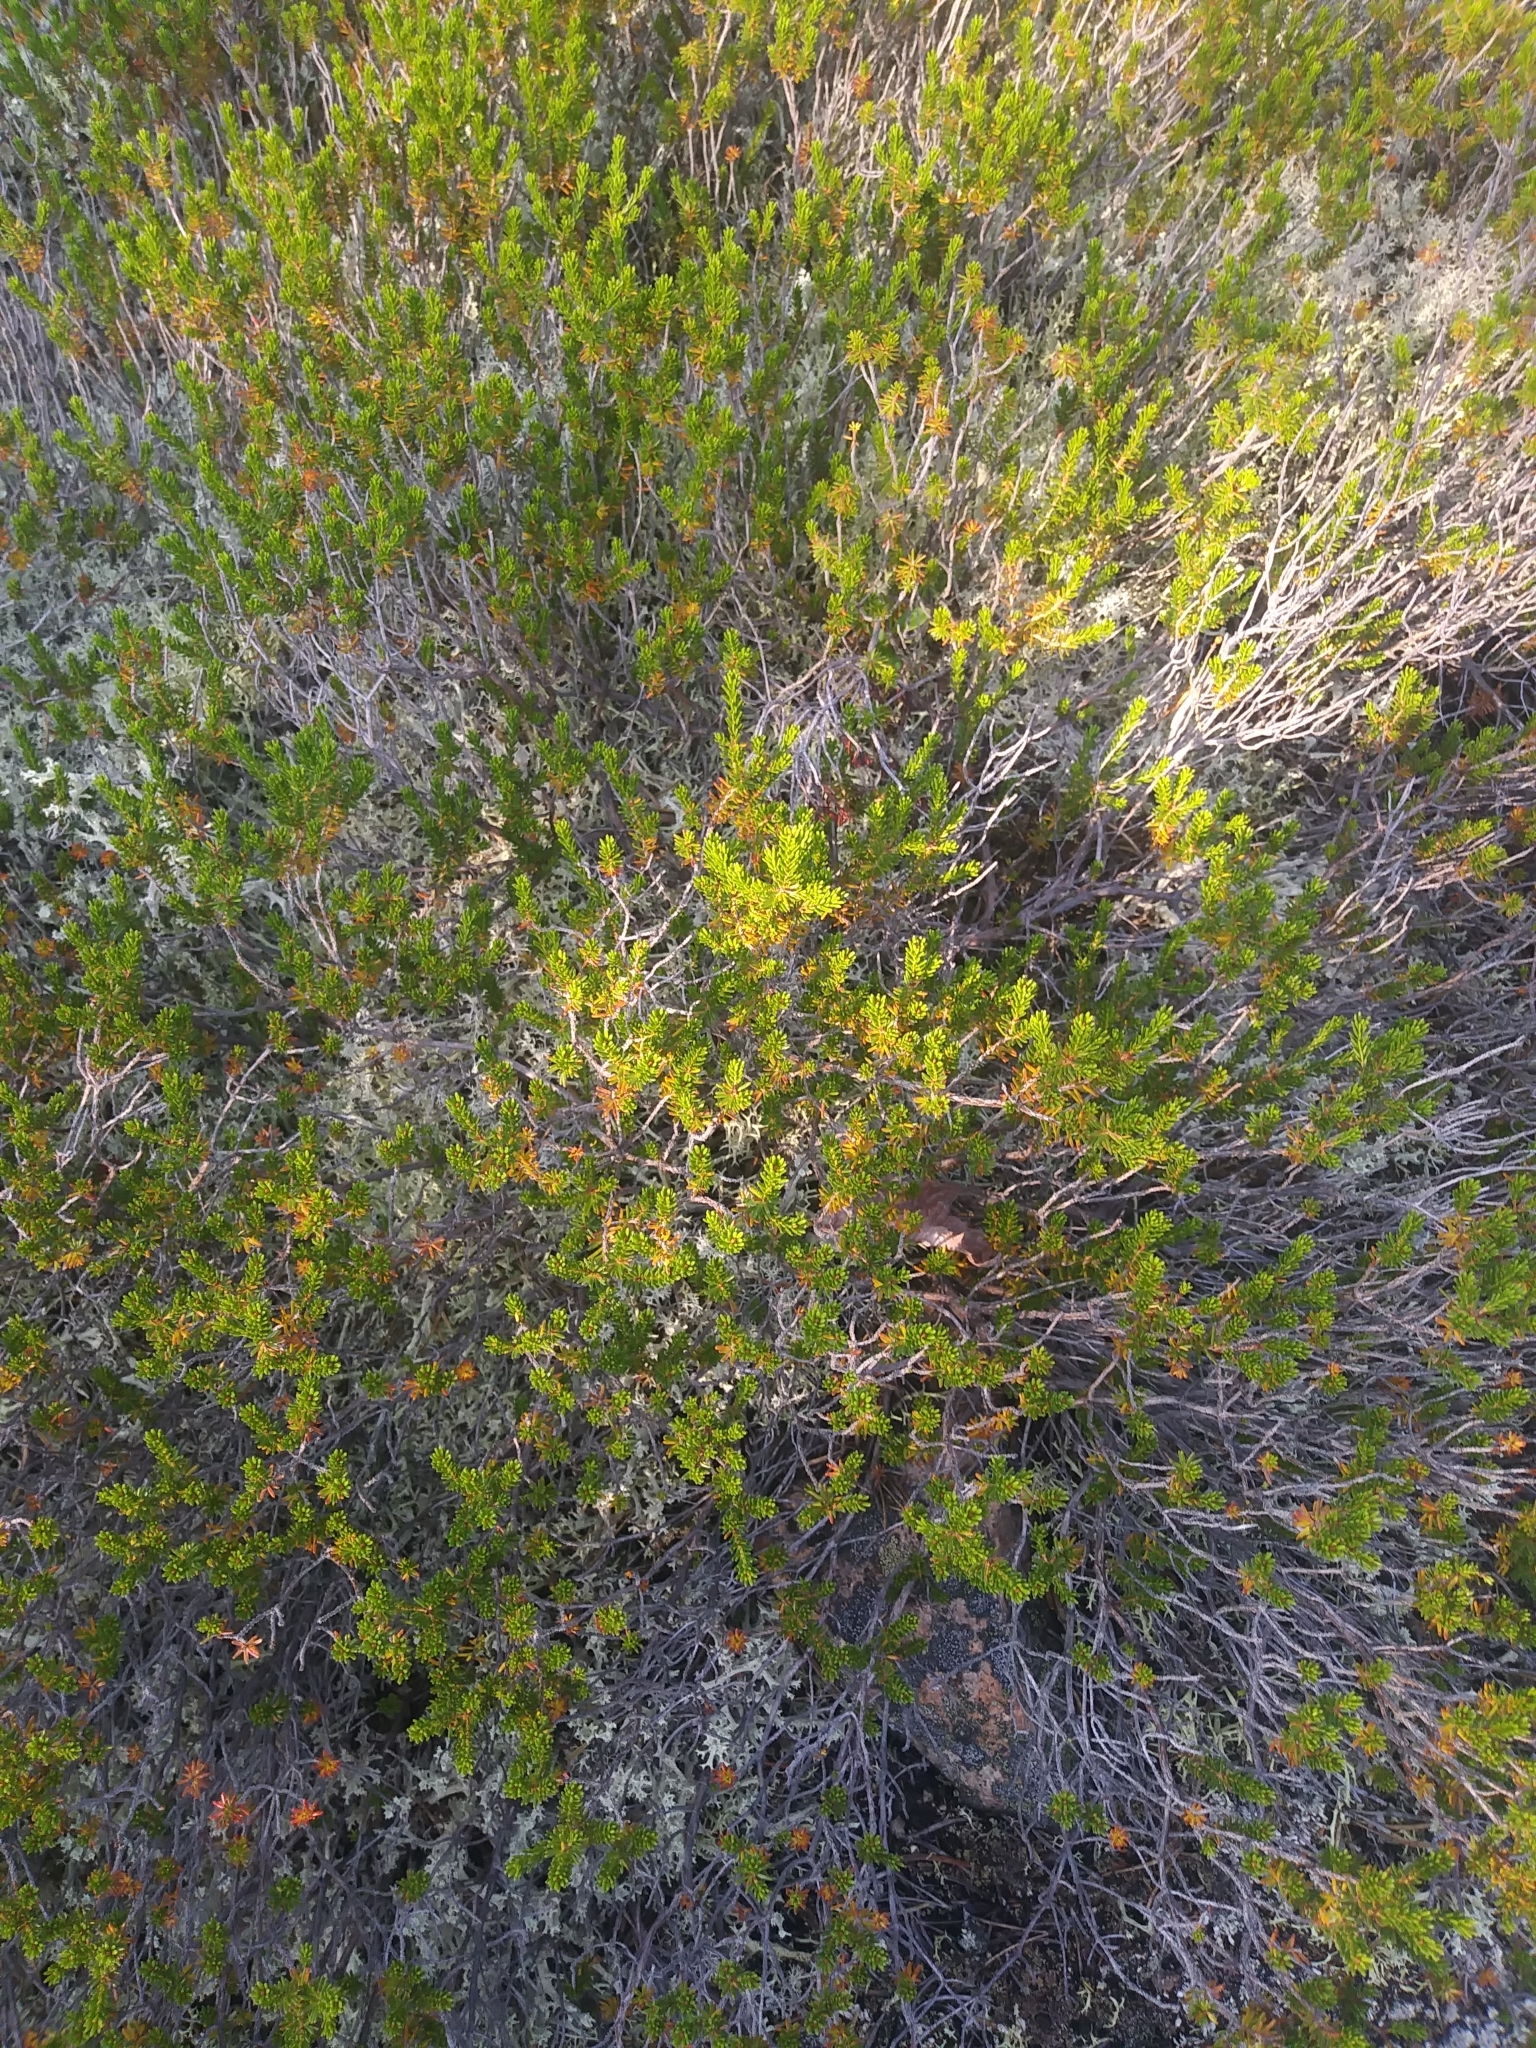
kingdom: Plantae
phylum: Tracheophyta
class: Magnoliopsida
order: Ericales
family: Ericaceae
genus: Corema
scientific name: Corema conradii
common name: Broom-crowberry
